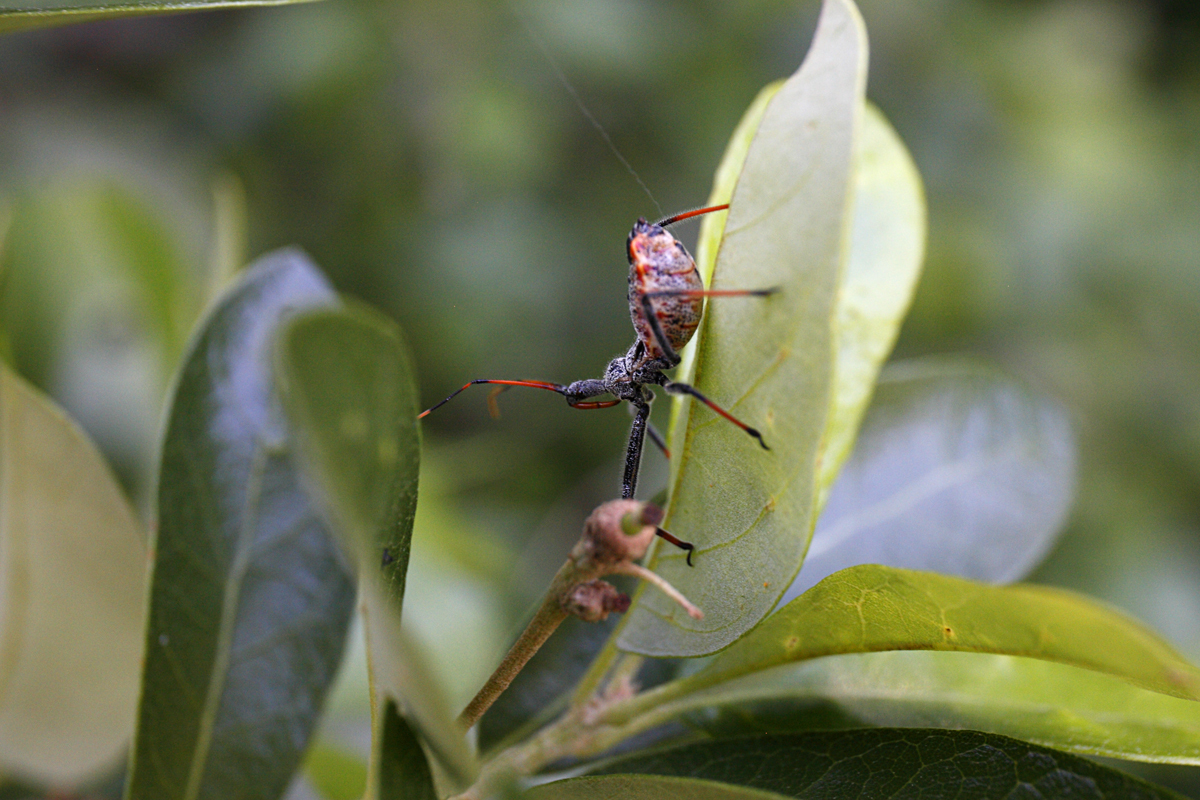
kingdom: Animalia
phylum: Arthropoda
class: Insecta
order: Hemiptera
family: Reduviidae
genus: Arilus
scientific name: Arilus cristatus
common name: North american wheel bug
